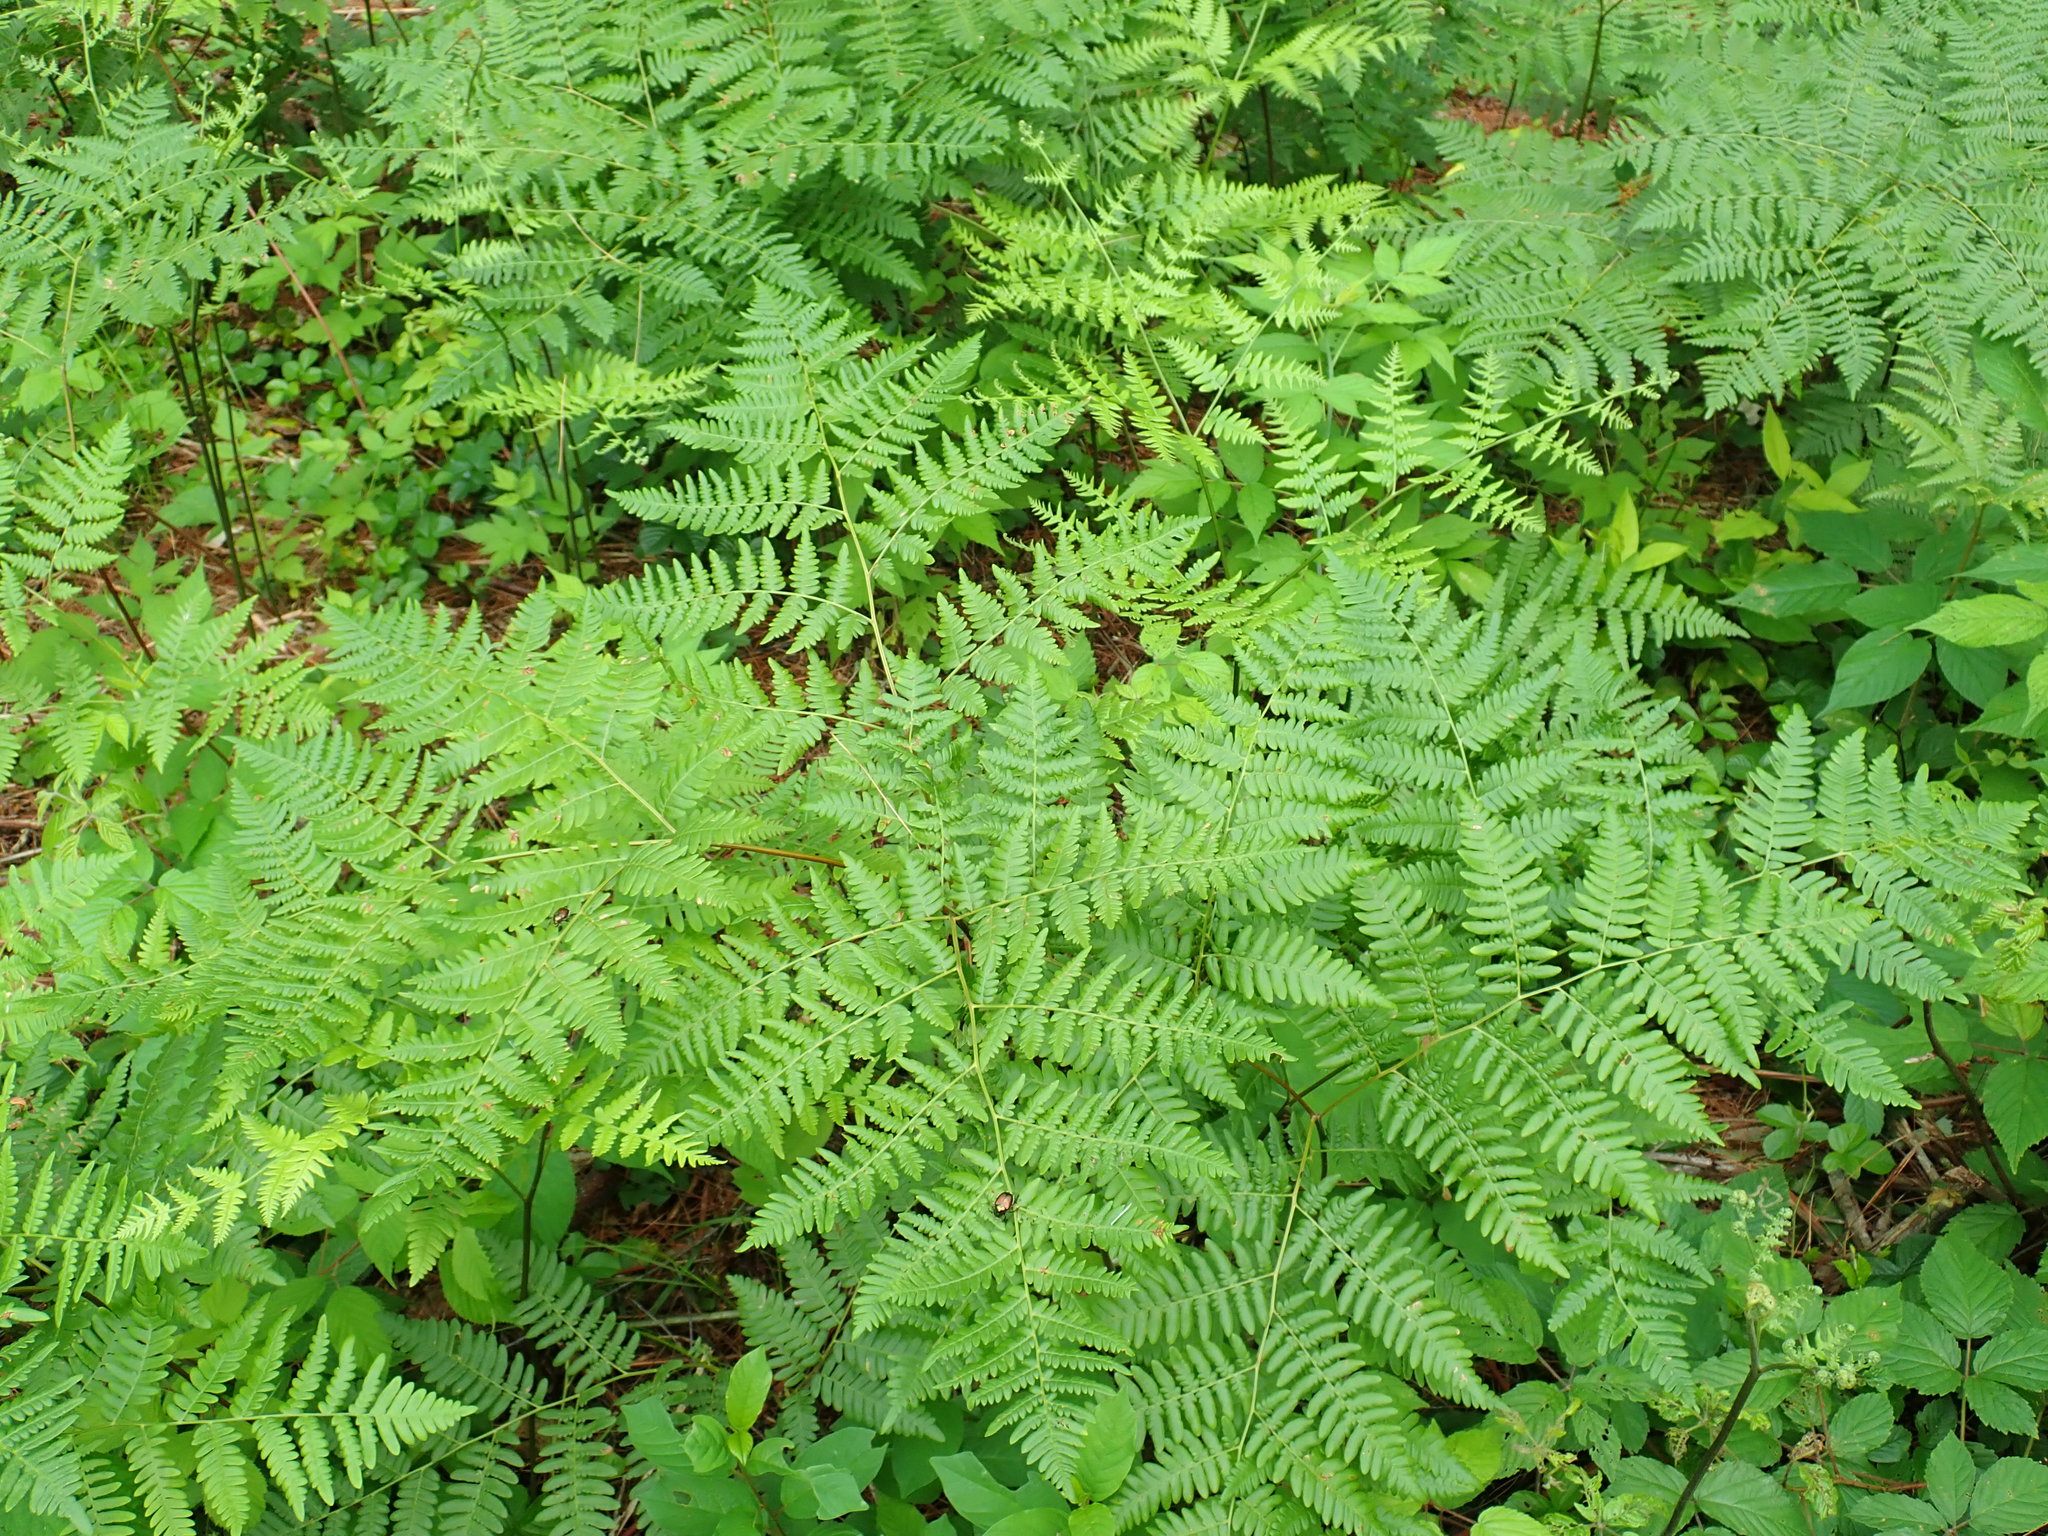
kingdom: Plantae
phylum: Tracheophyta
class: Polypodiopsida
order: Polypodiales
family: Dennstaedtiaceae
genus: Pteridium
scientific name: Pteridium aquilinum
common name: Bracken
